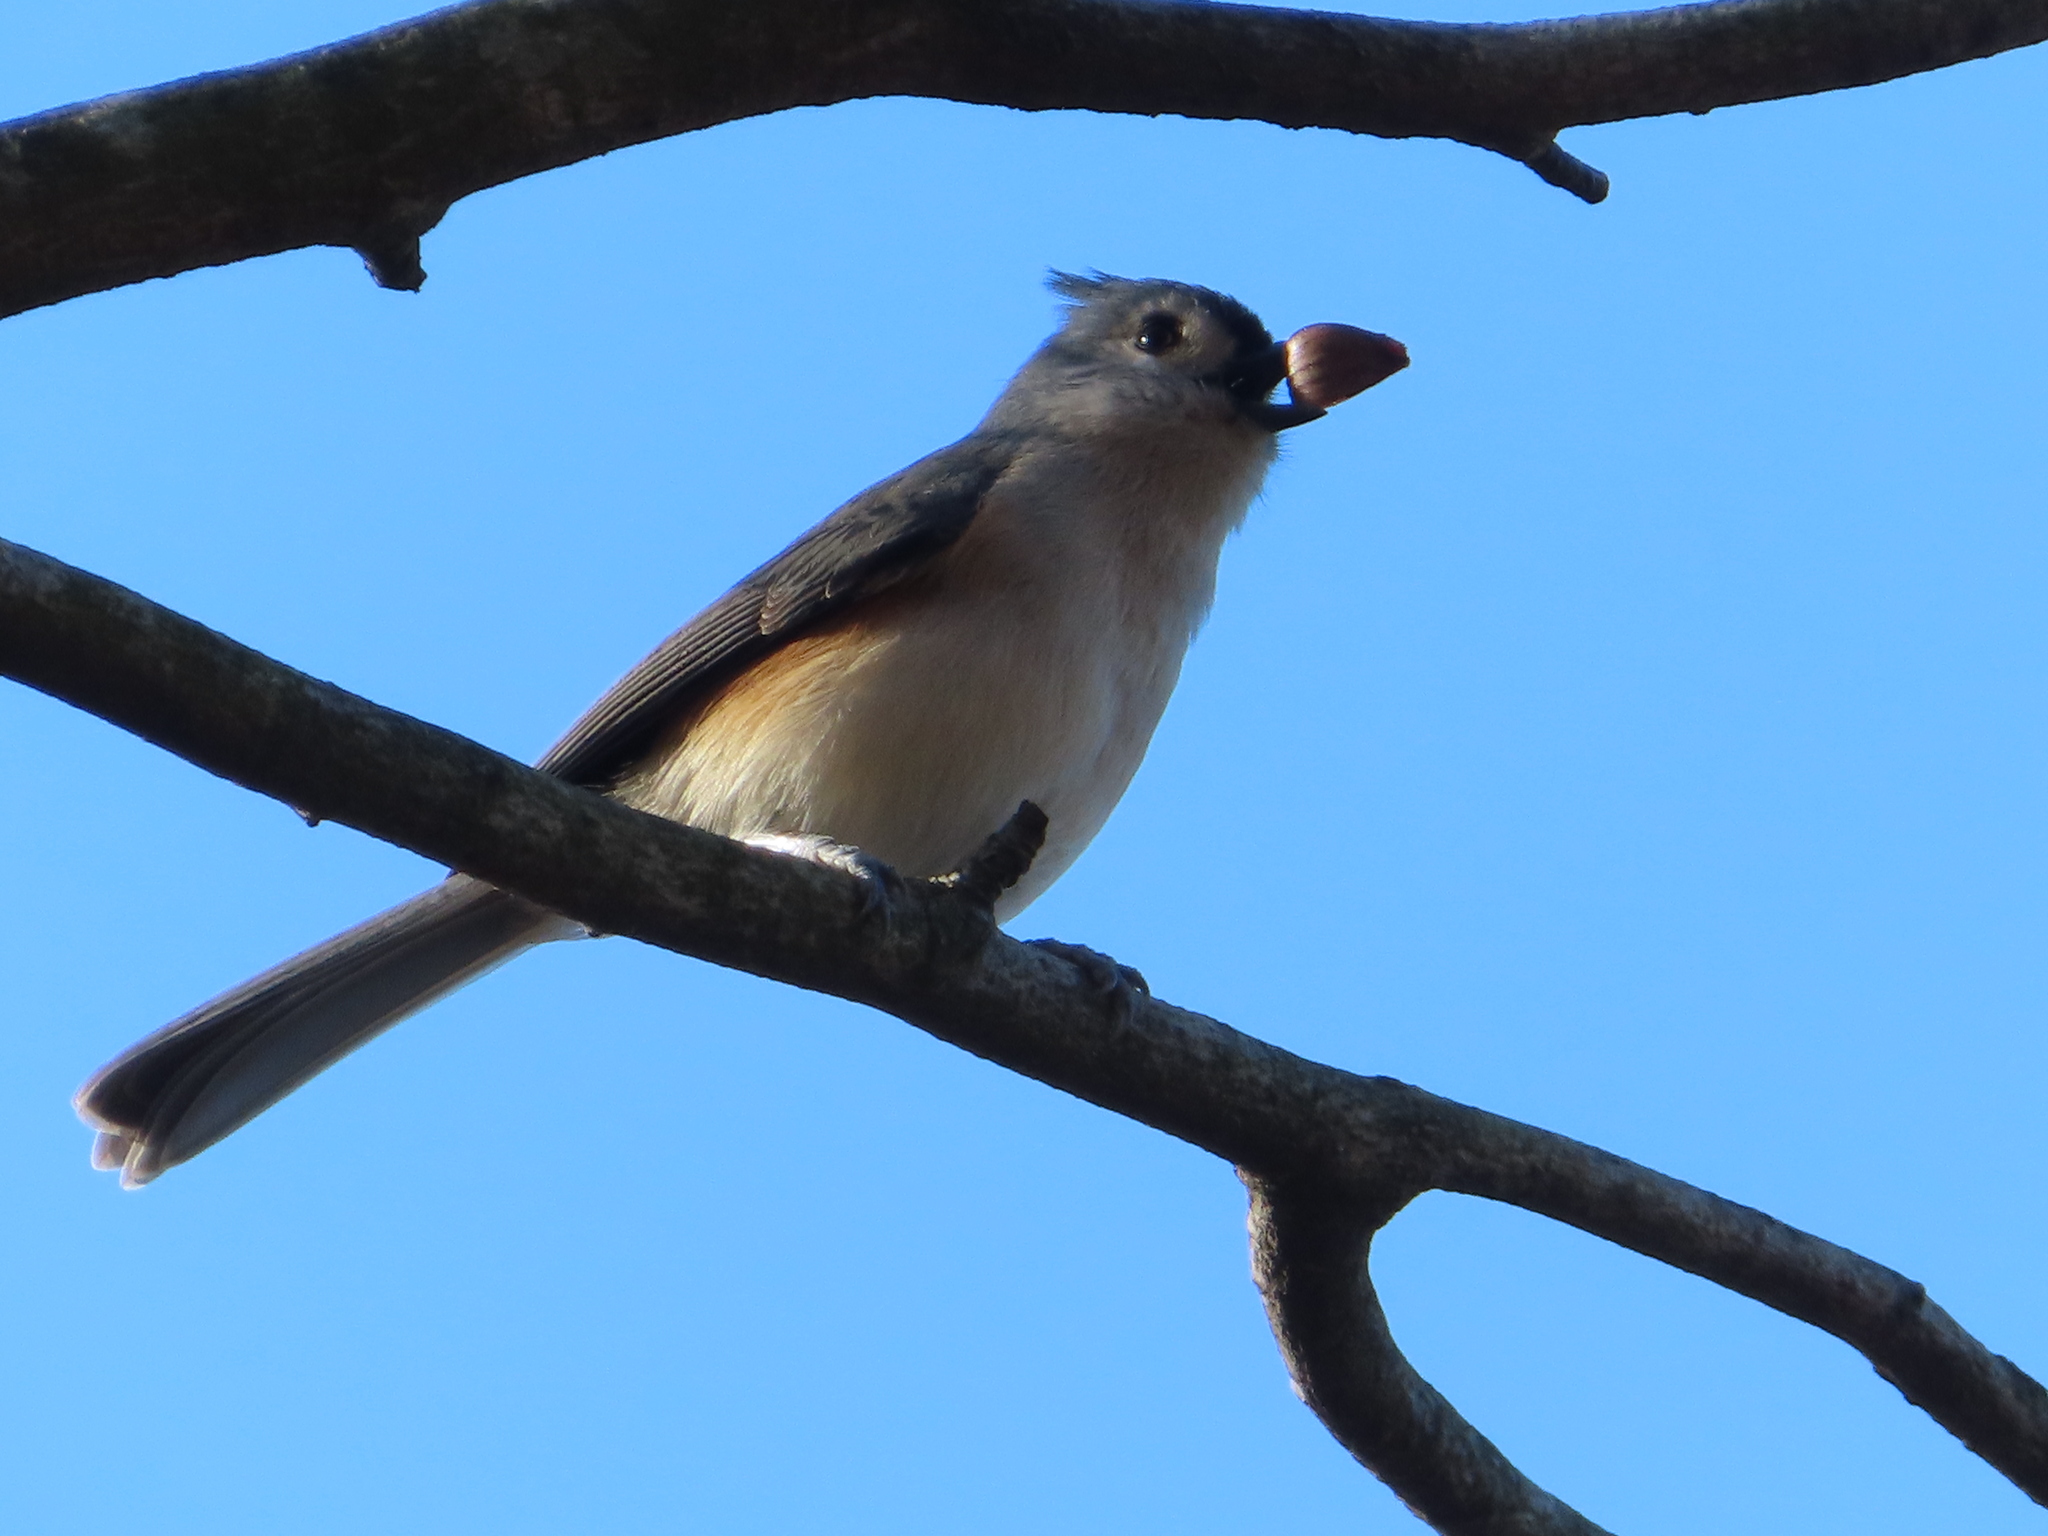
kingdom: Animalia
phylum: Chordata
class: Aves
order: Passeriformes
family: Paridae
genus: Baeolophus
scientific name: Baeolophus bicolor
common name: Tufted titmouse
